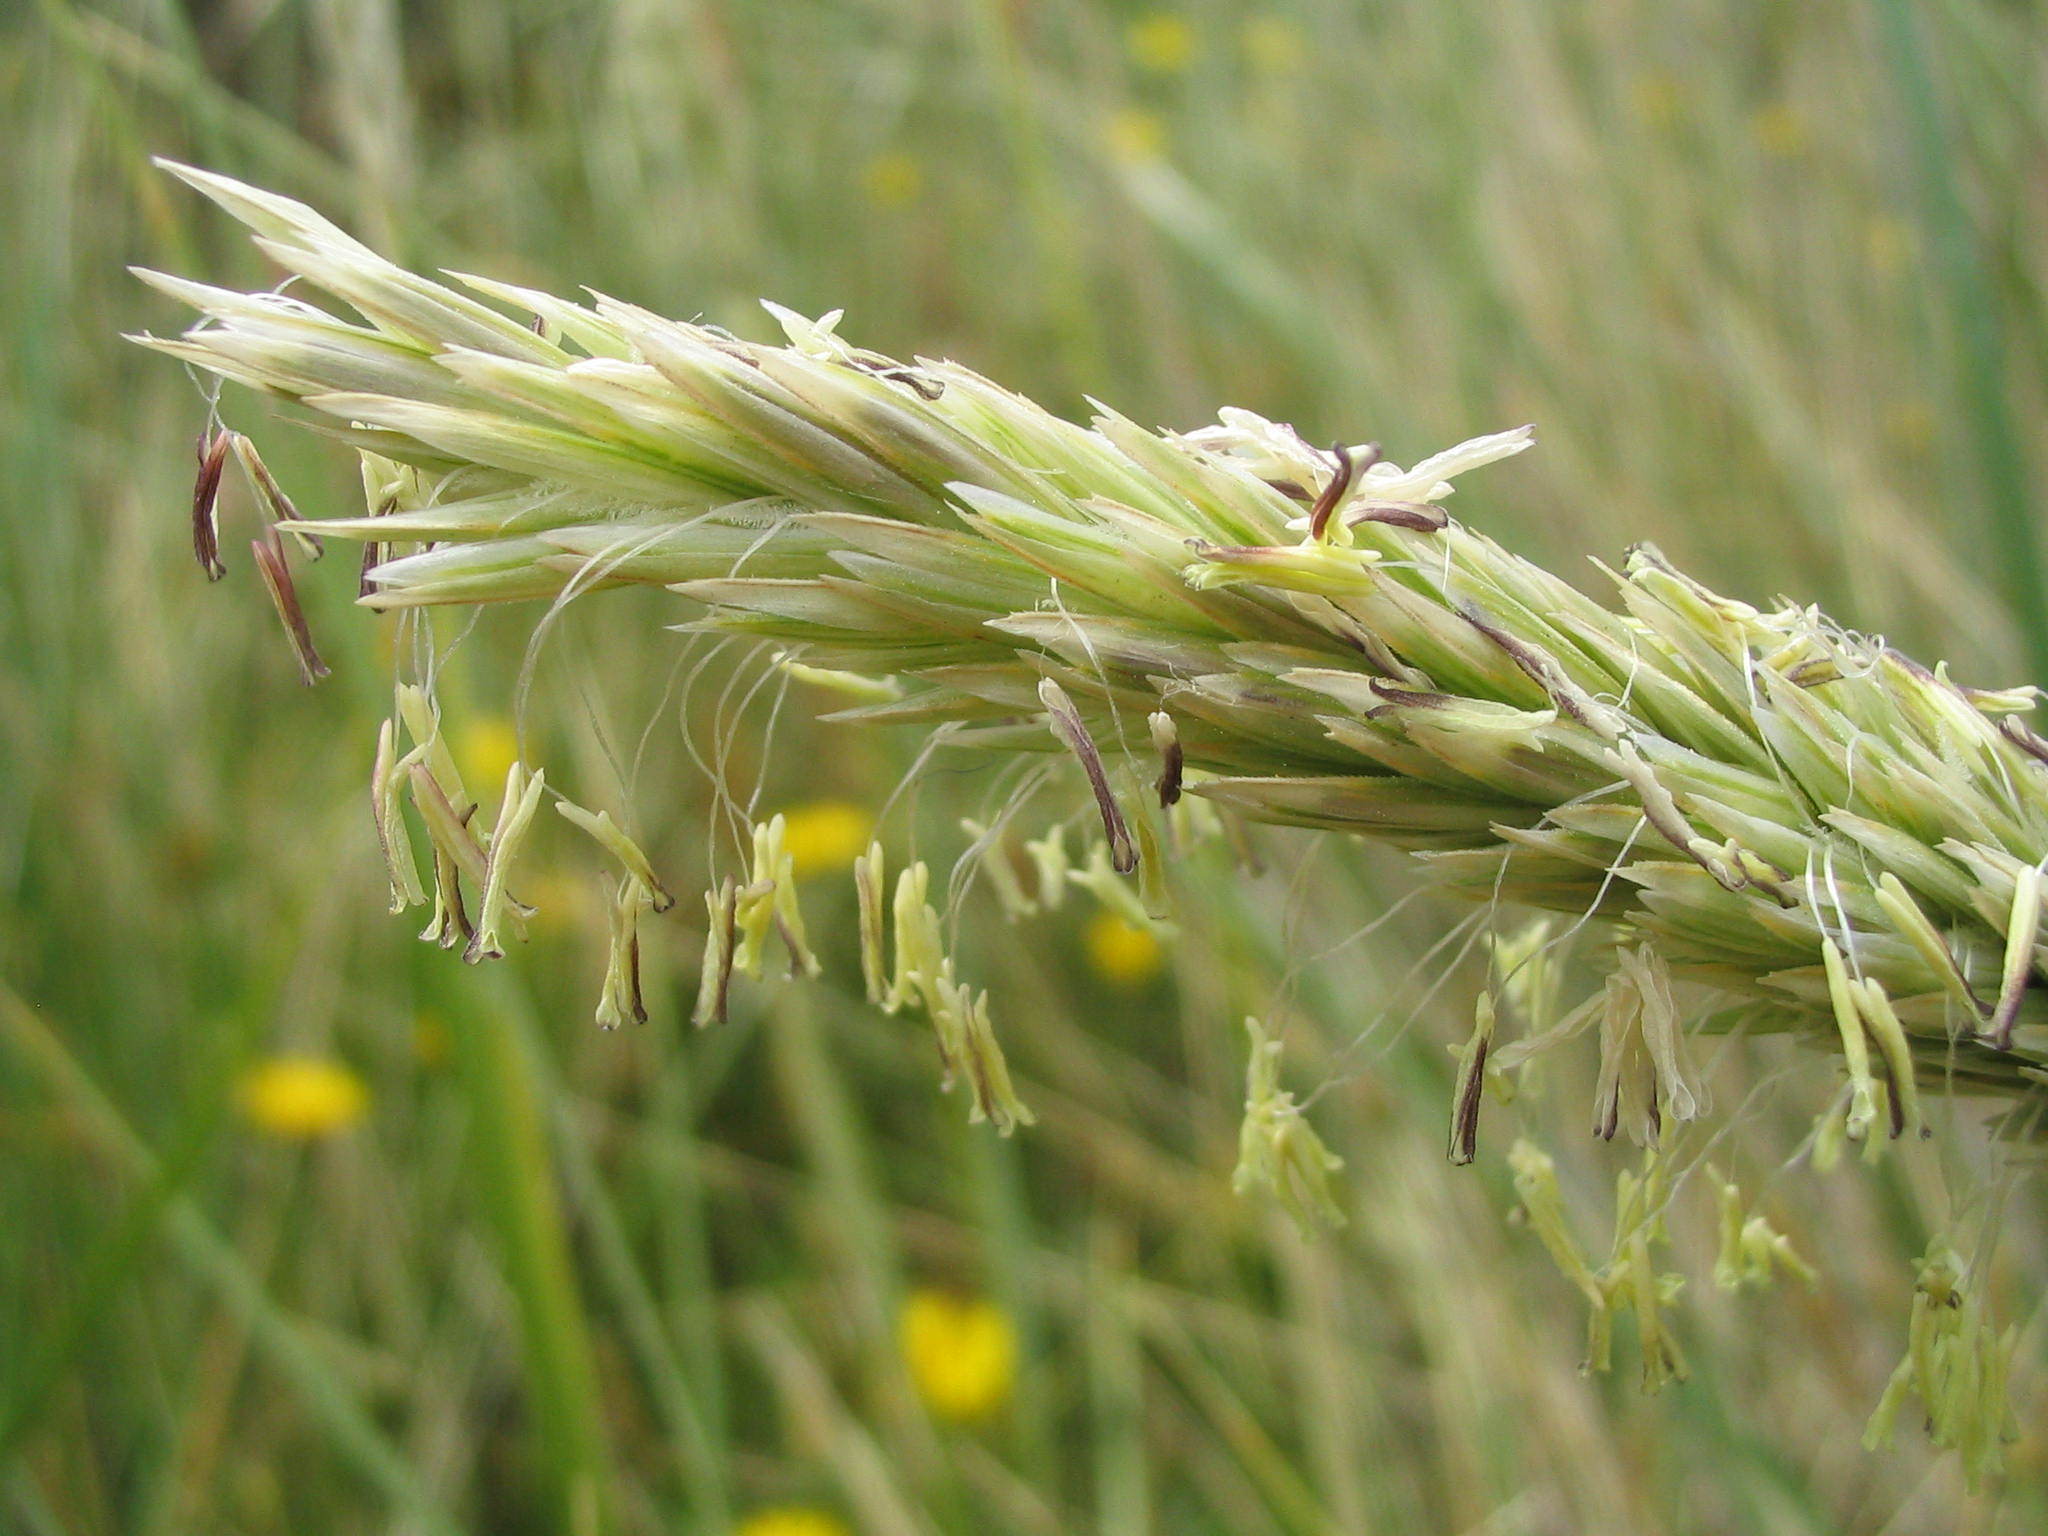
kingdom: Plantae
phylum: Tracheophyta
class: Liliopsida
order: Poales
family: Poaceae
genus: Calamagrostis
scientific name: Calamagrostis arenaria
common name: European beachgrass
